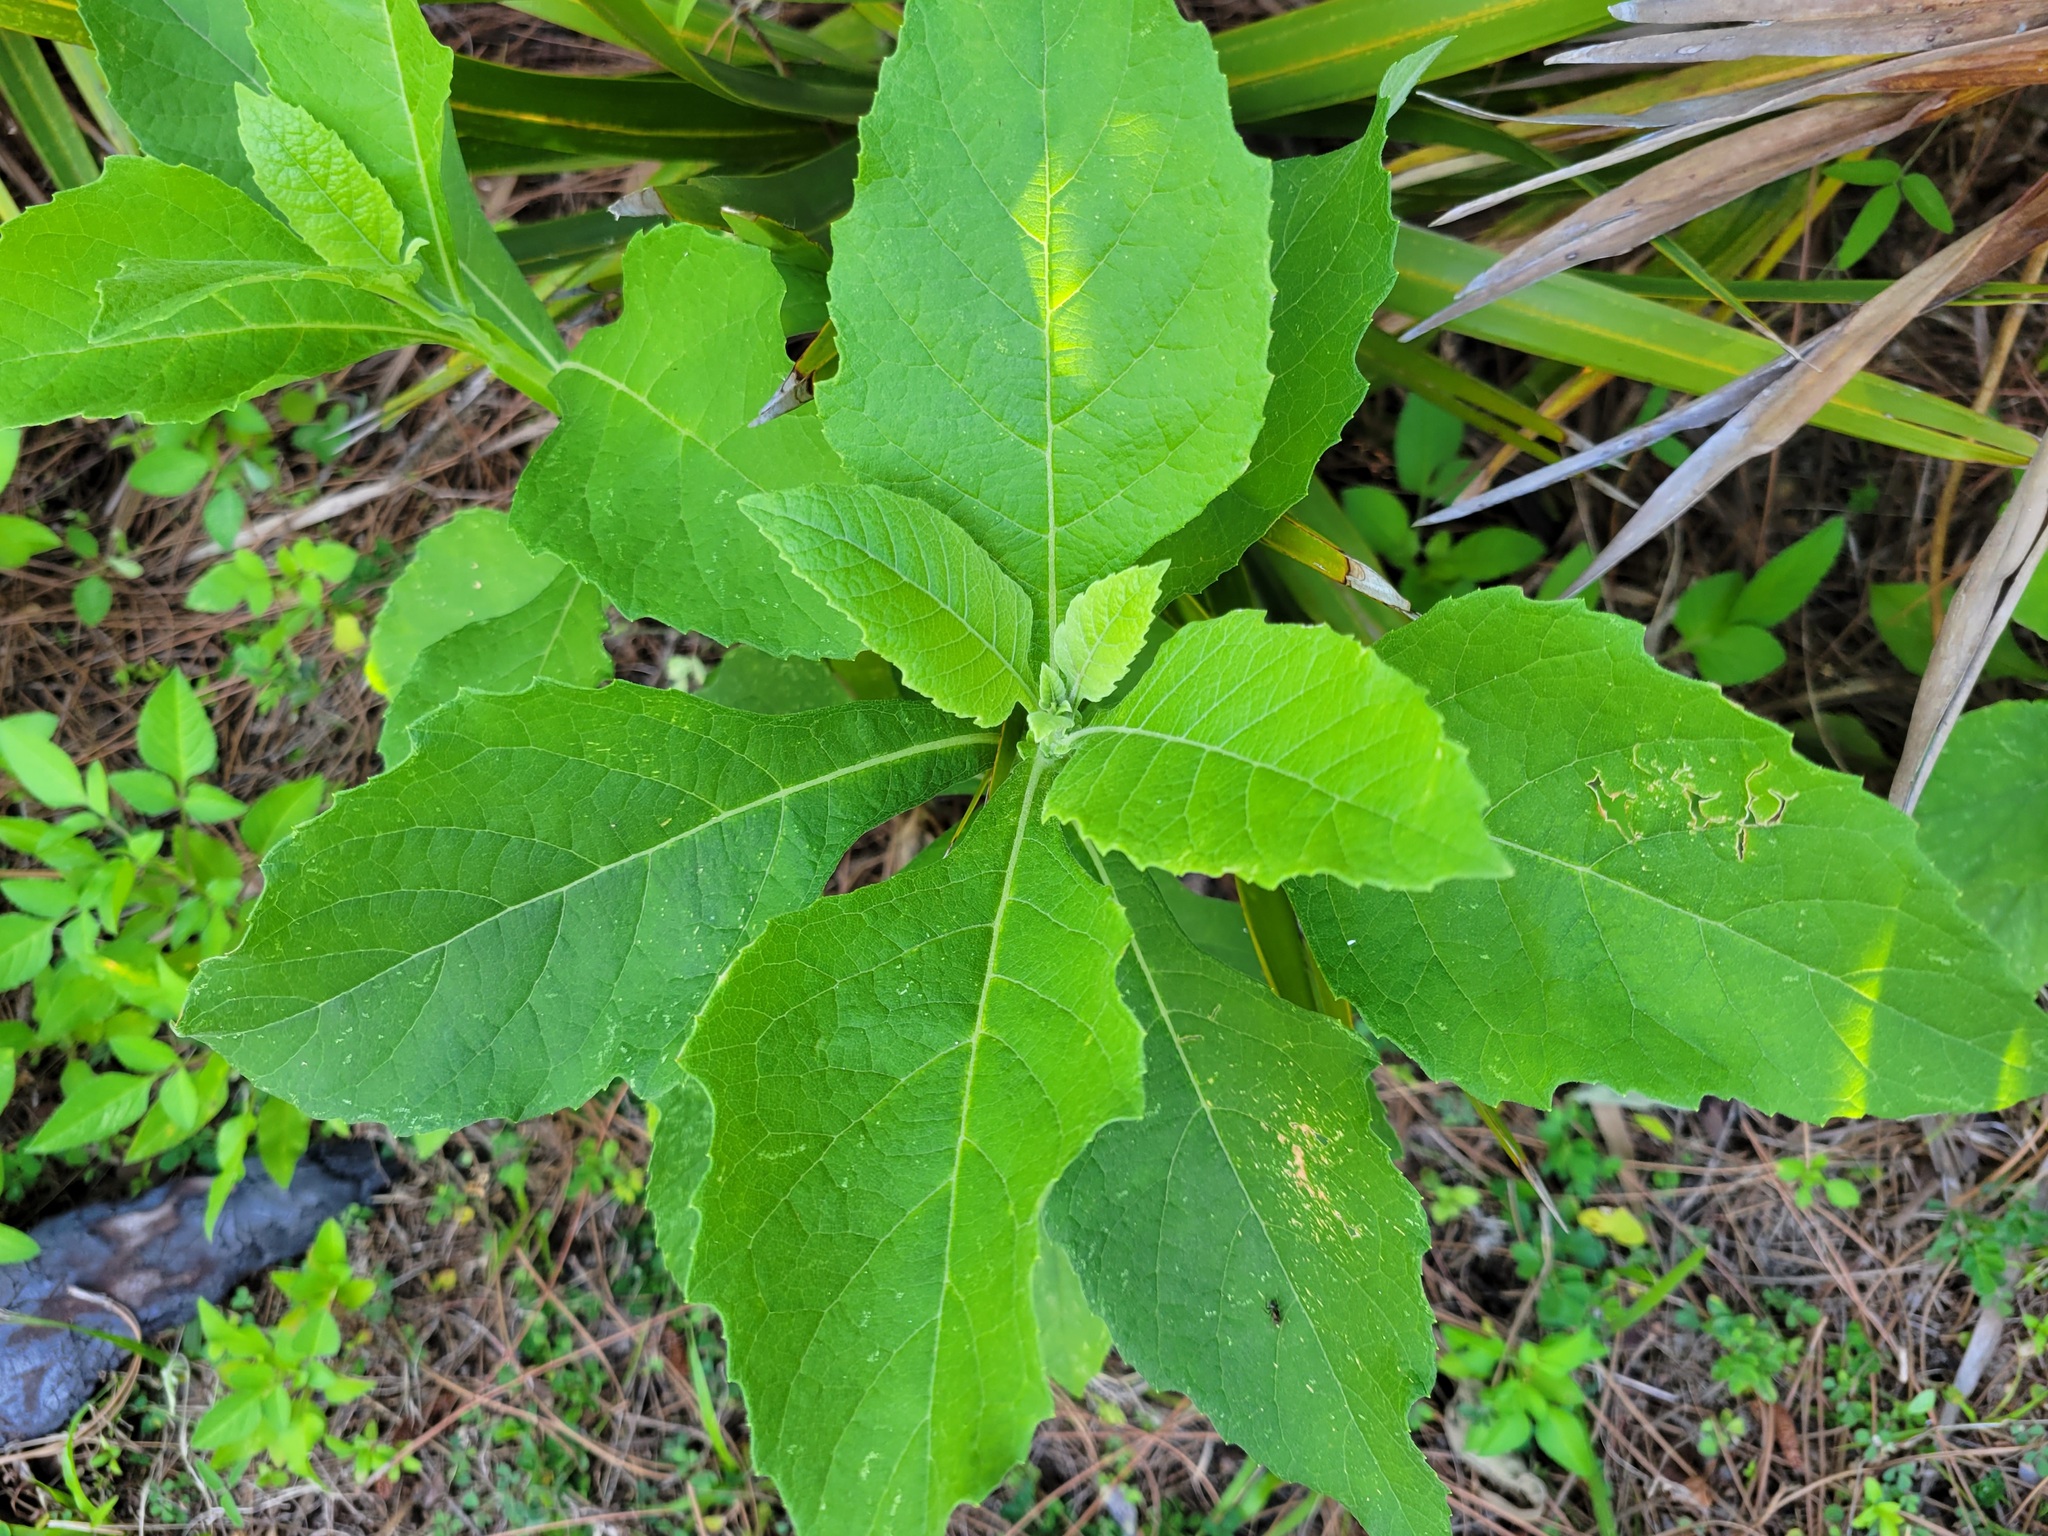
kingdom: Plantae
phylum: Tracheophyta
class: Magnoliopsida
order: Asterales
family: Asteraceae
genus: Verbesina
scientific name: Verbesina virginica
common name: Frostweed
